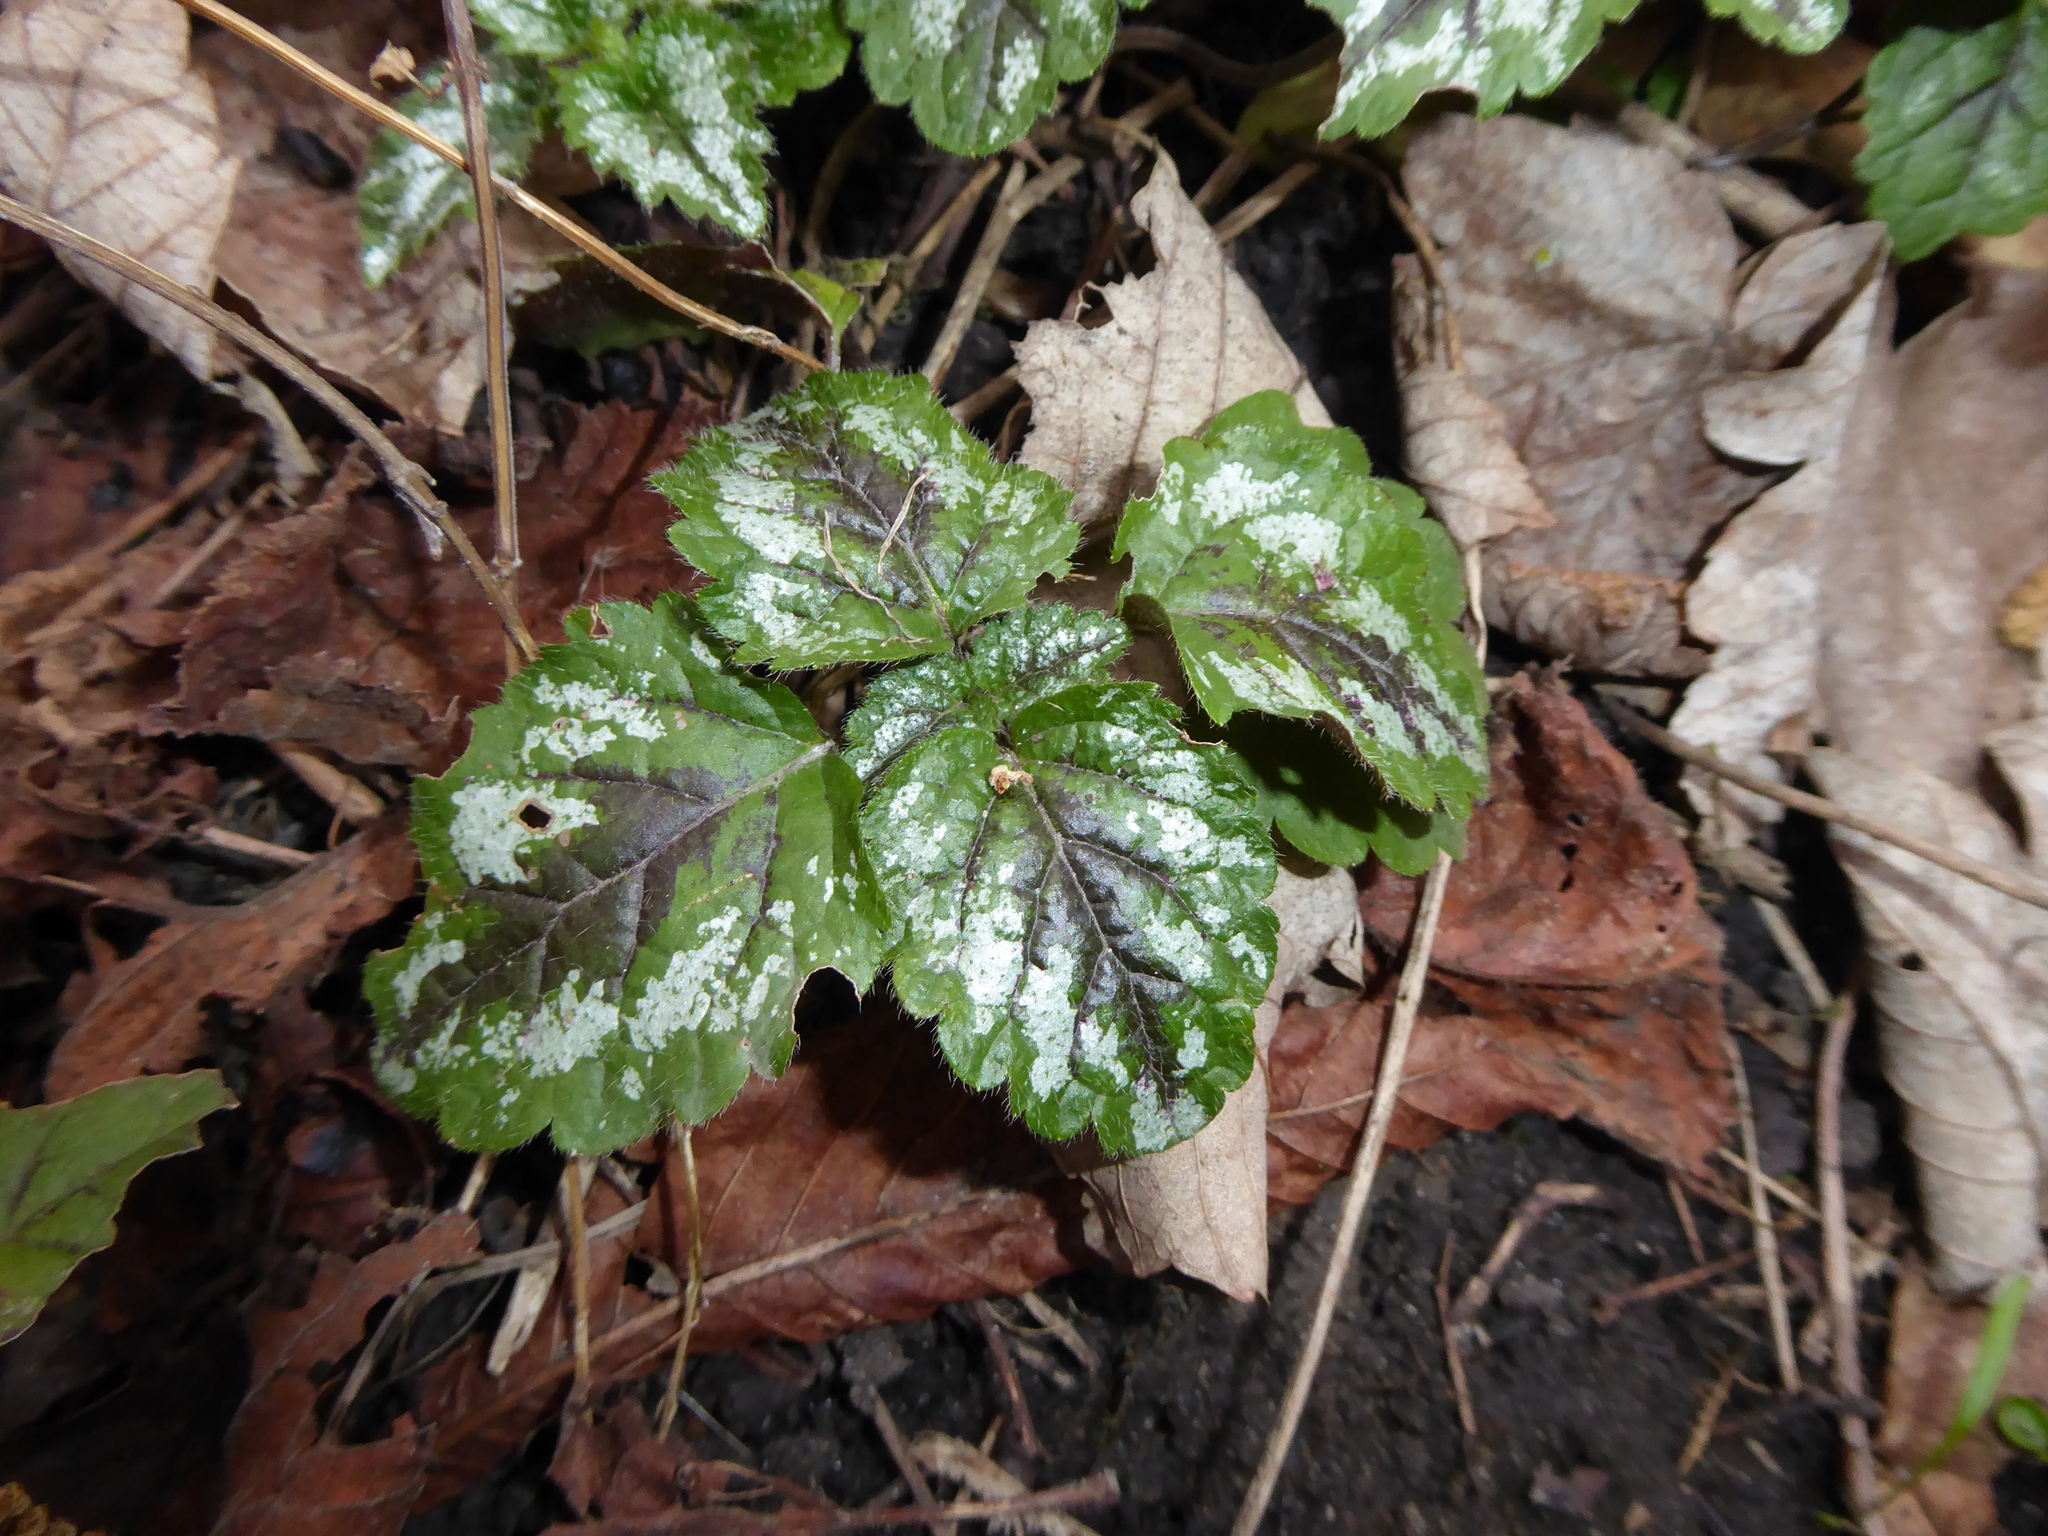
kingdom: Plantae
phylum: Tracheophyta
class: Magnoliopsida
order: Lamiales
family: Lamiaceae
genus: Lamium
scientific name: Lamium galeobdolon
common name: Yellow archangel
